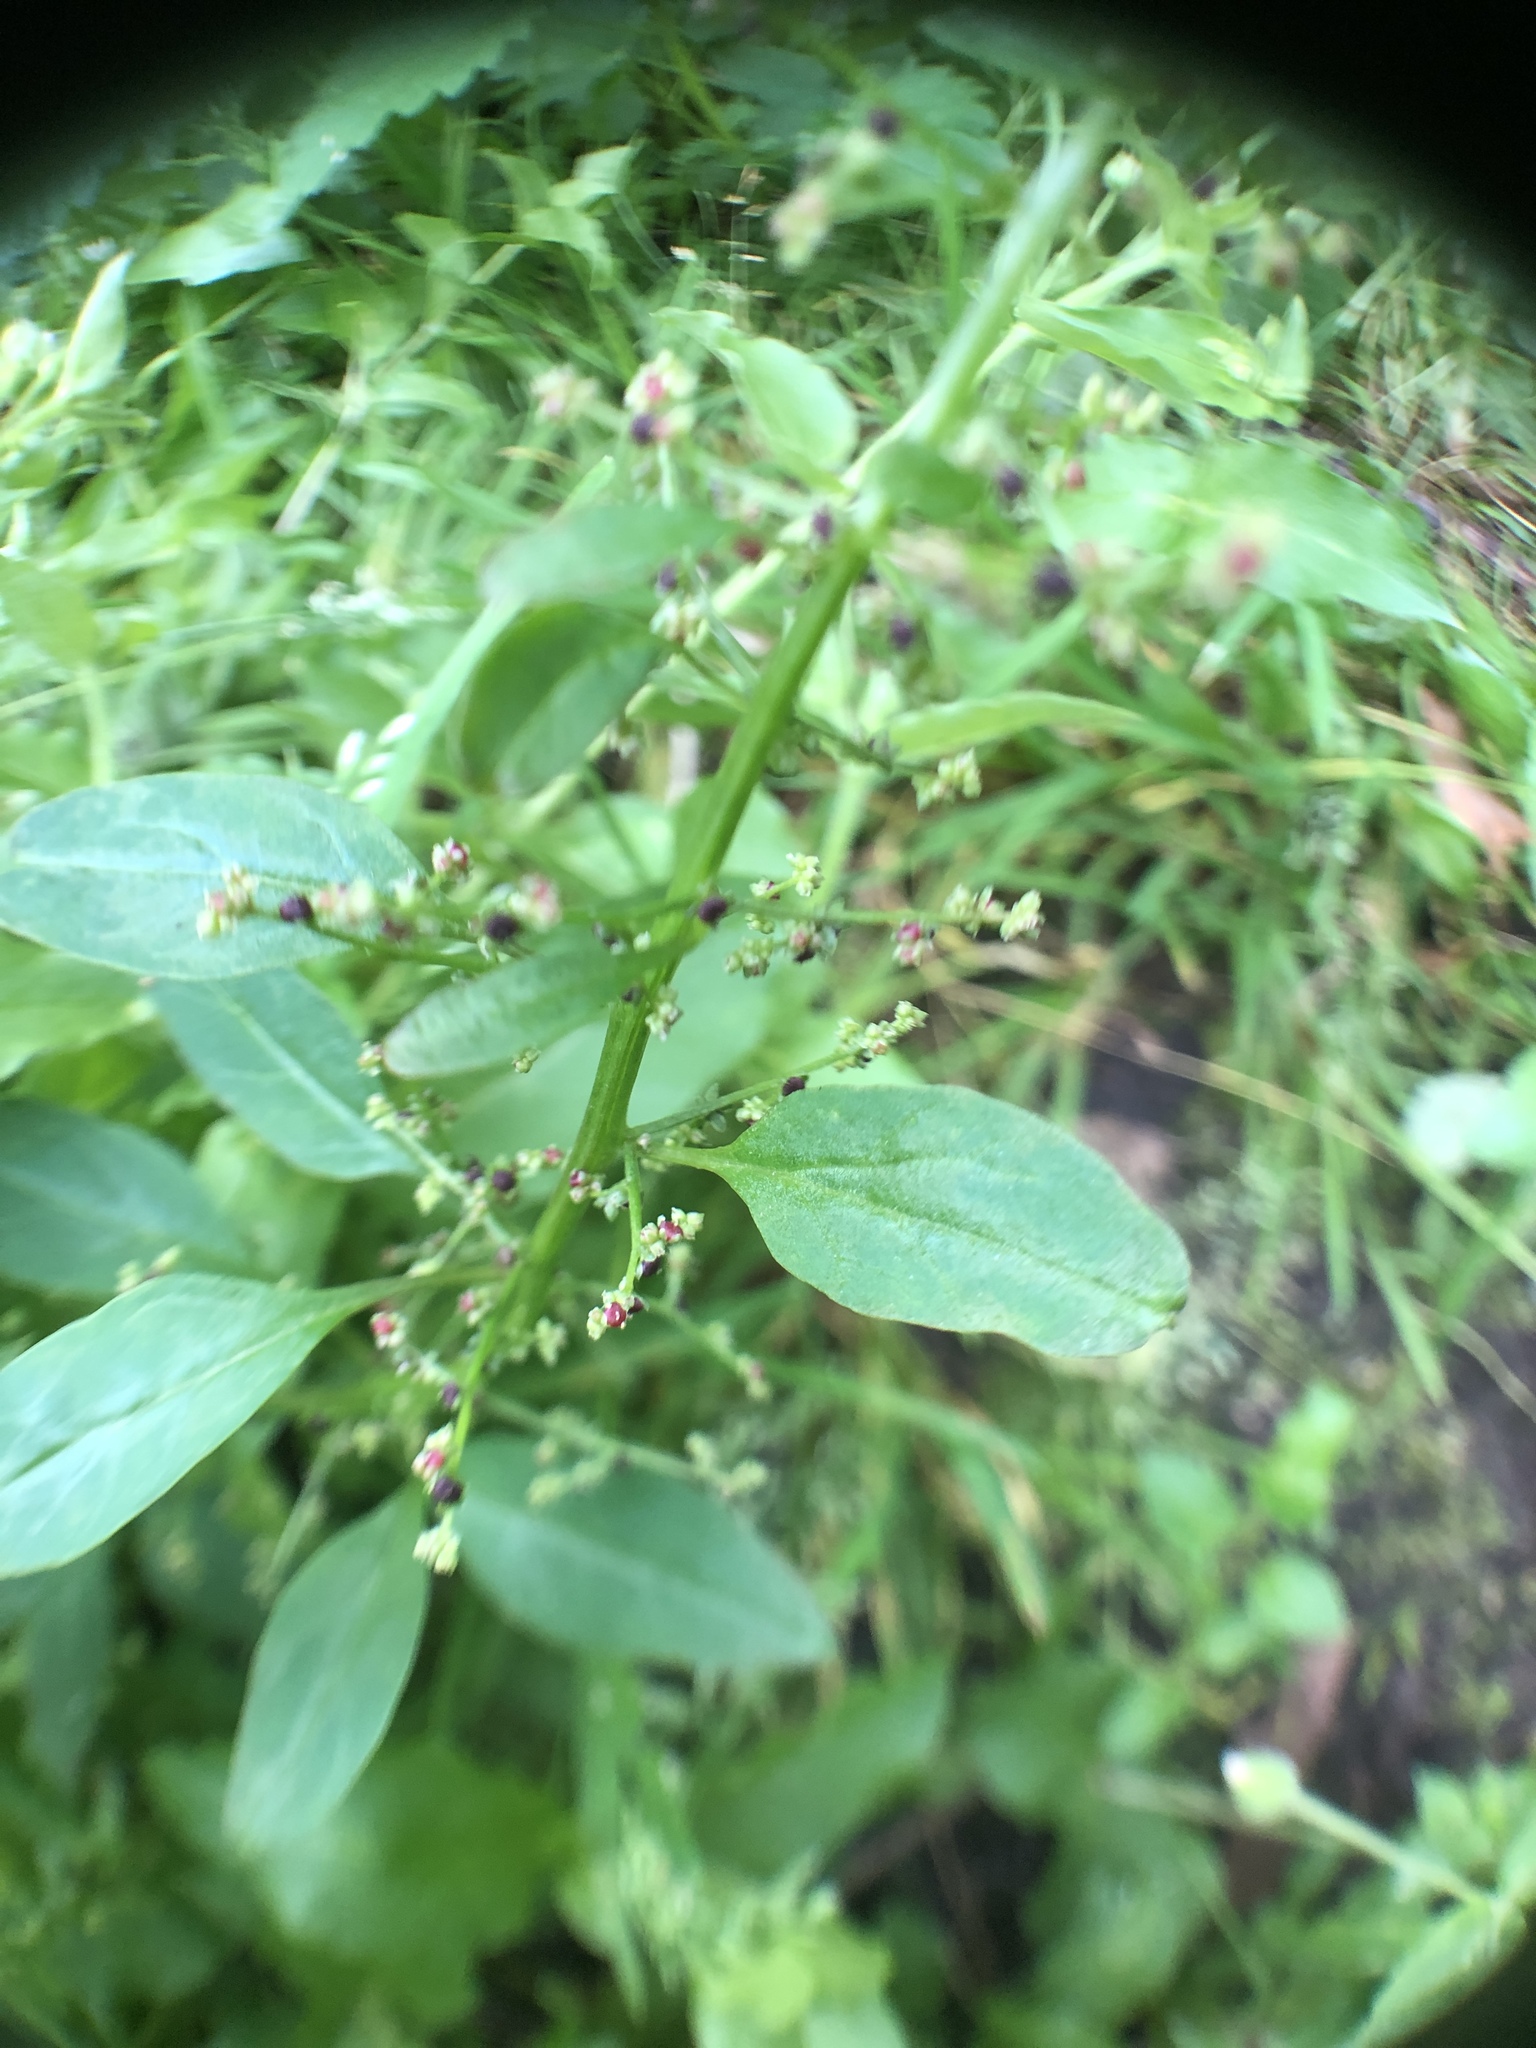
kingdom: Plantae
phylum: Tracheophyta
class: Magnoliopsida
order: Caryophyllales
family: Amaranthaceae
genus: Lipandra
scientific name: Lipandra polysperma
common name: Many-seed goosefoot
